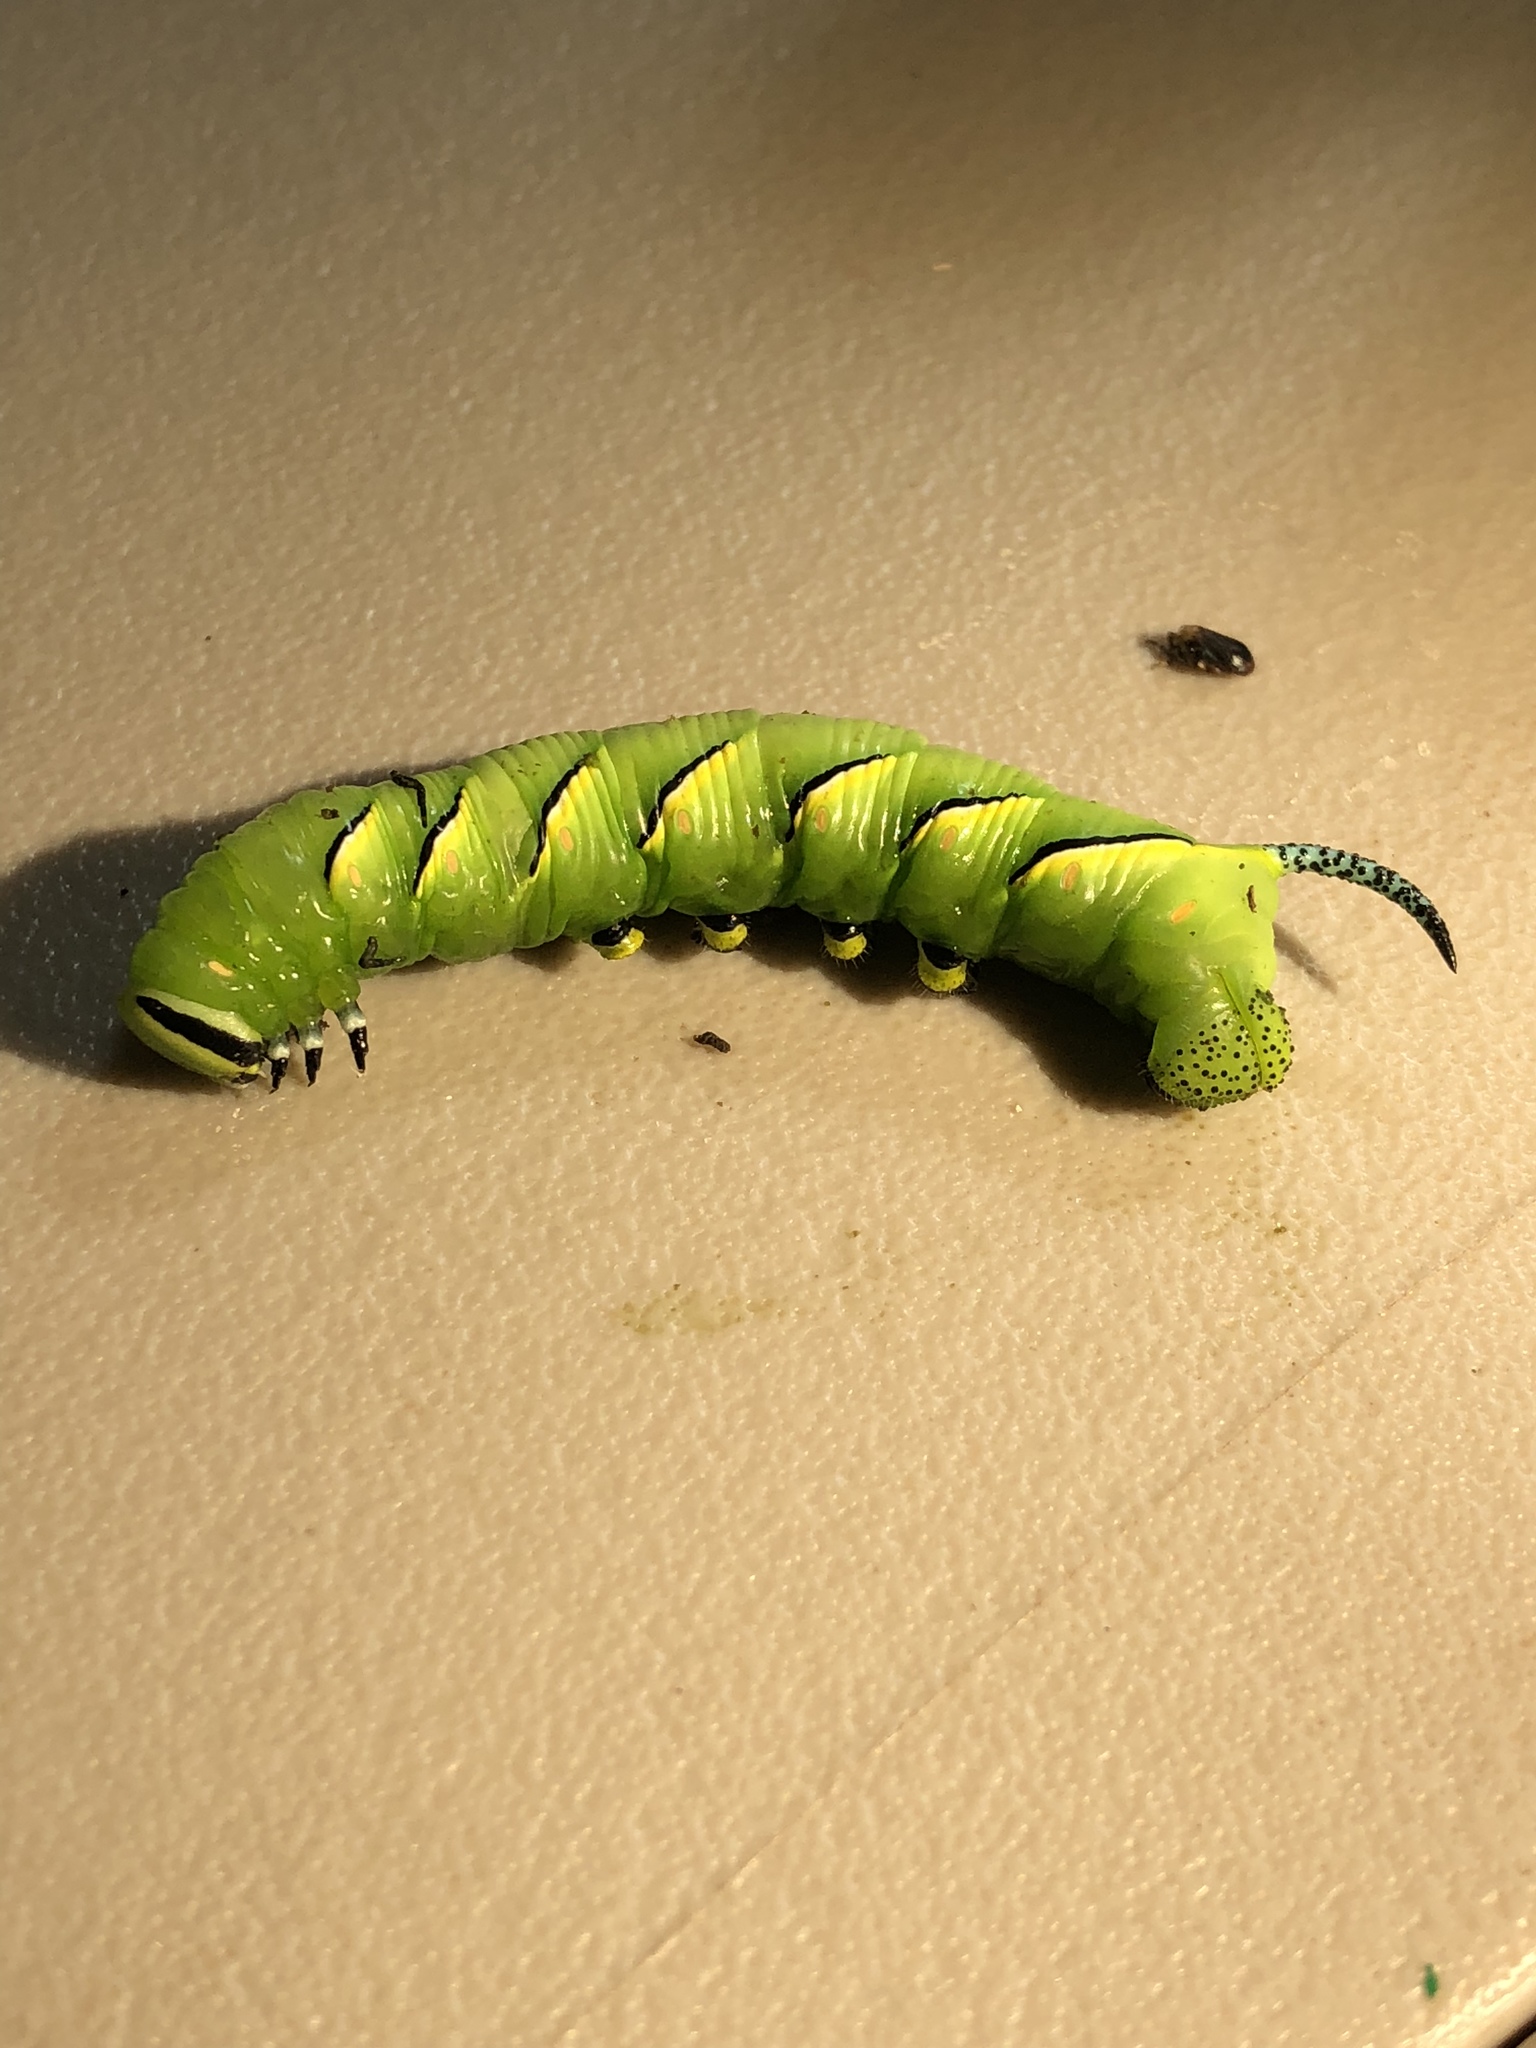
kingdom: Animalia
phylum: Arthropoda
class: Insecta
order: Lepidoptera
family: Sphingidae
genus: Sphinx
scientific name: Sphinx kalmiae
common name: Laurel sphinx
